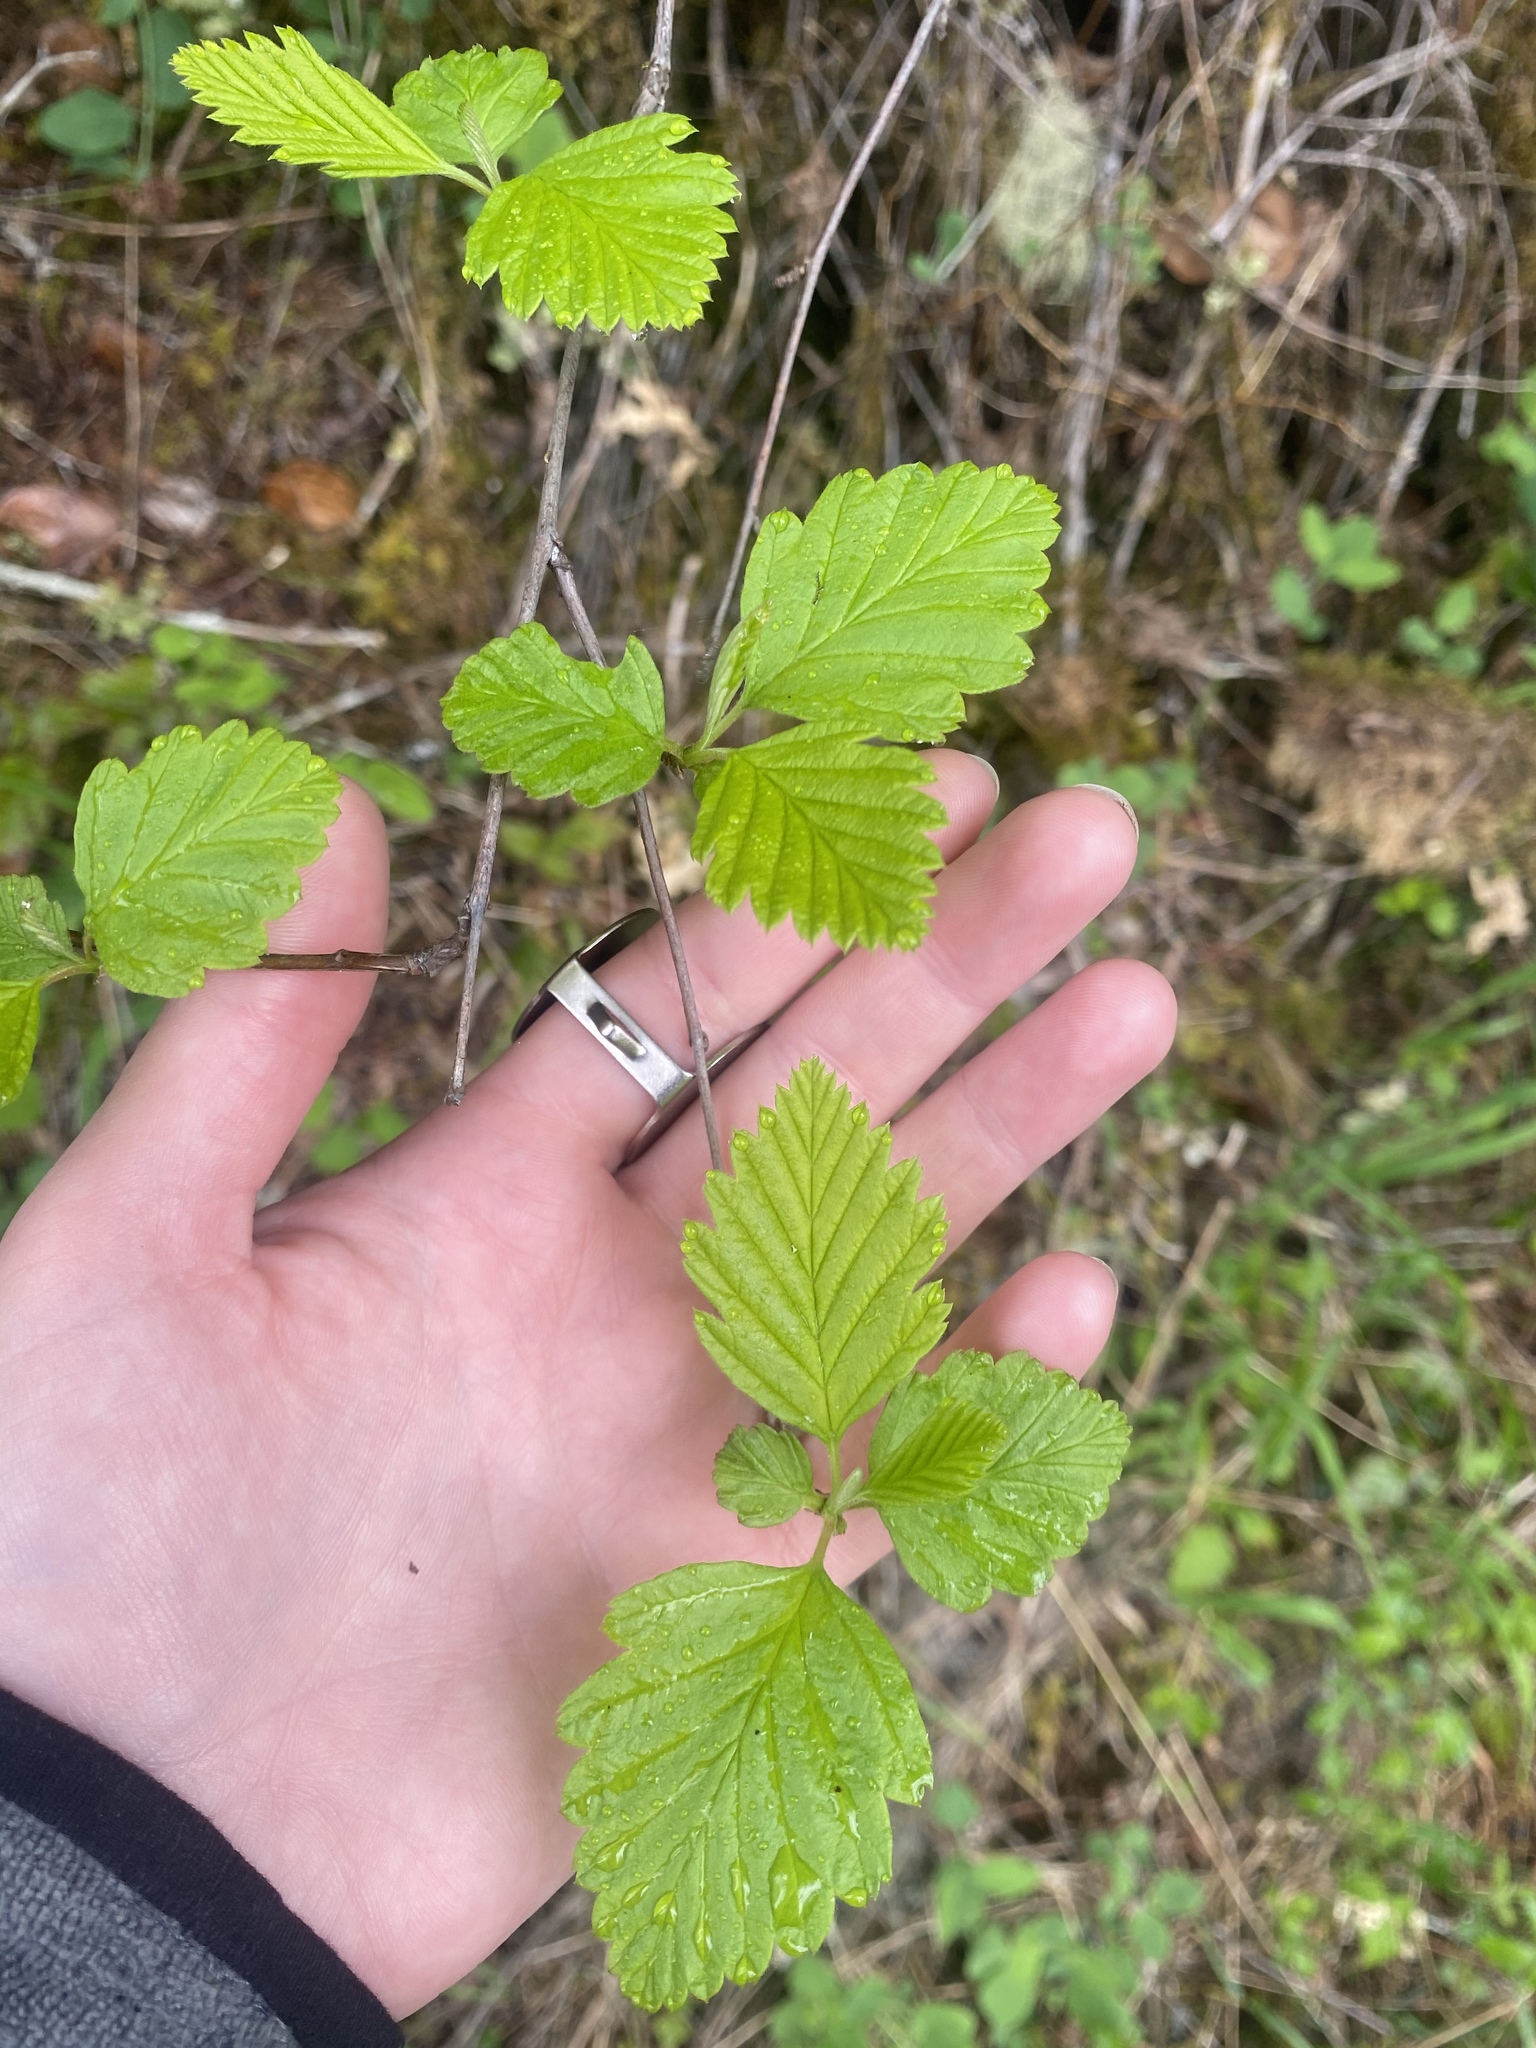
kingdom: Plantae
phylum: Tracheophyta
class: Magnoliopsida
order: Rosales
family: Rosaceae
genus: Holodiscus
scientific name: Holodiscus discolor
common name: Oceanspray
